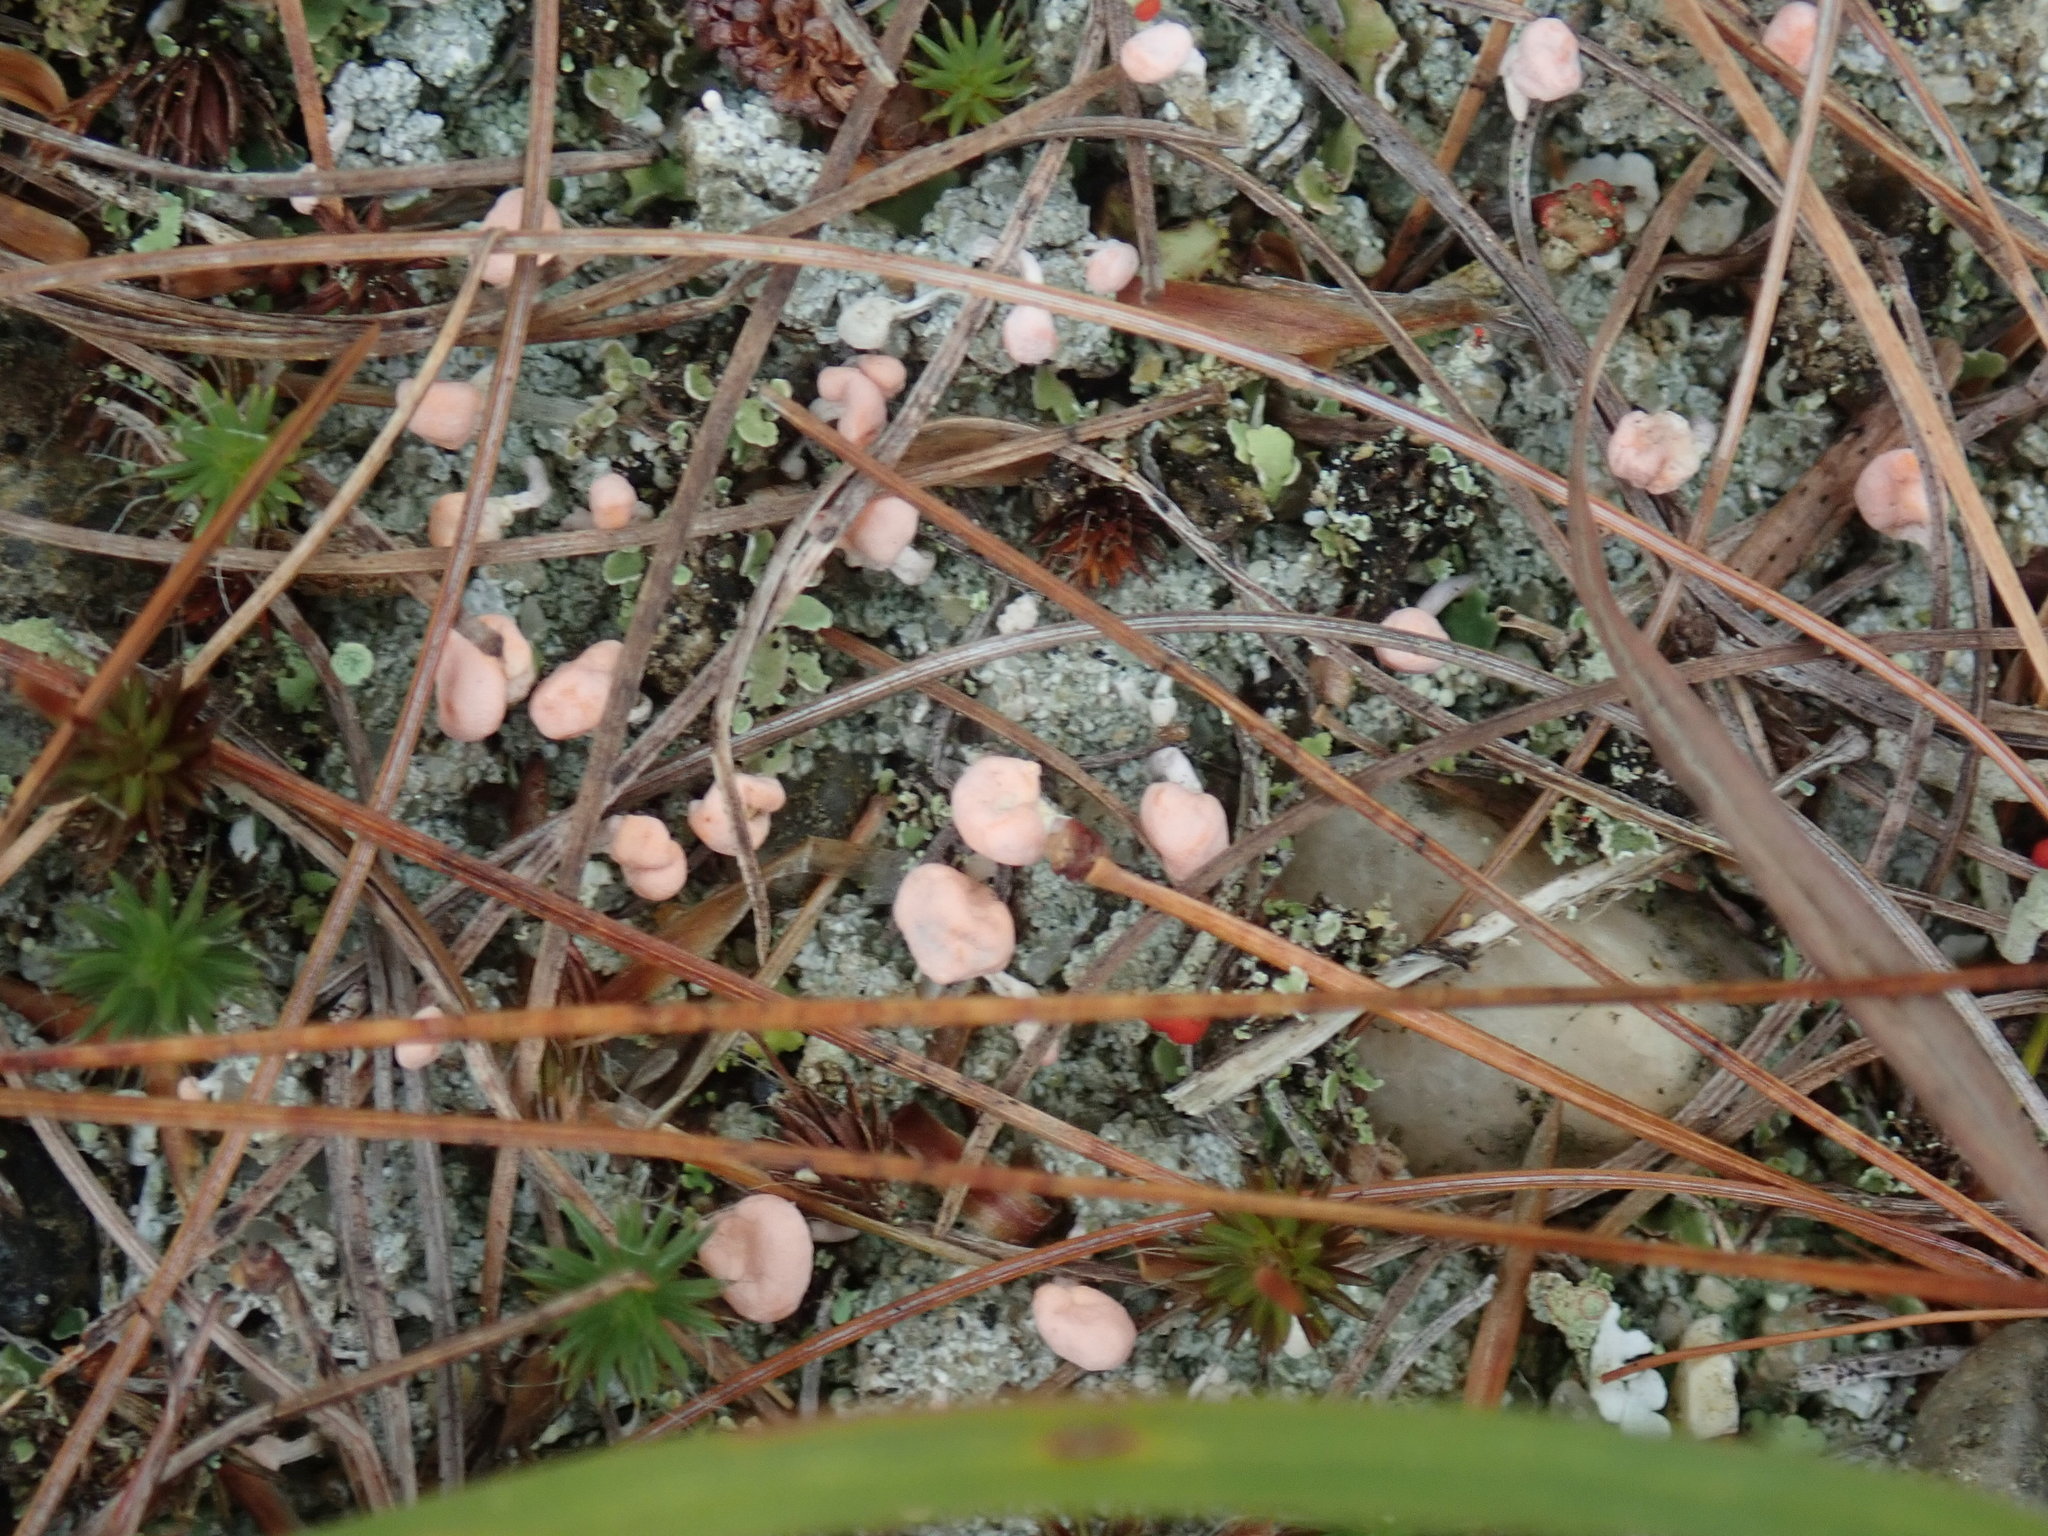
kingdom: Fungi
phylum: Ascomycota
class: Lecanoromycetes
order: Pertusariales
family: Icmadophilaceae
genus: Dibaeis
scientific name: Dibaeis baeomyces
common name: Pink earth lichen
